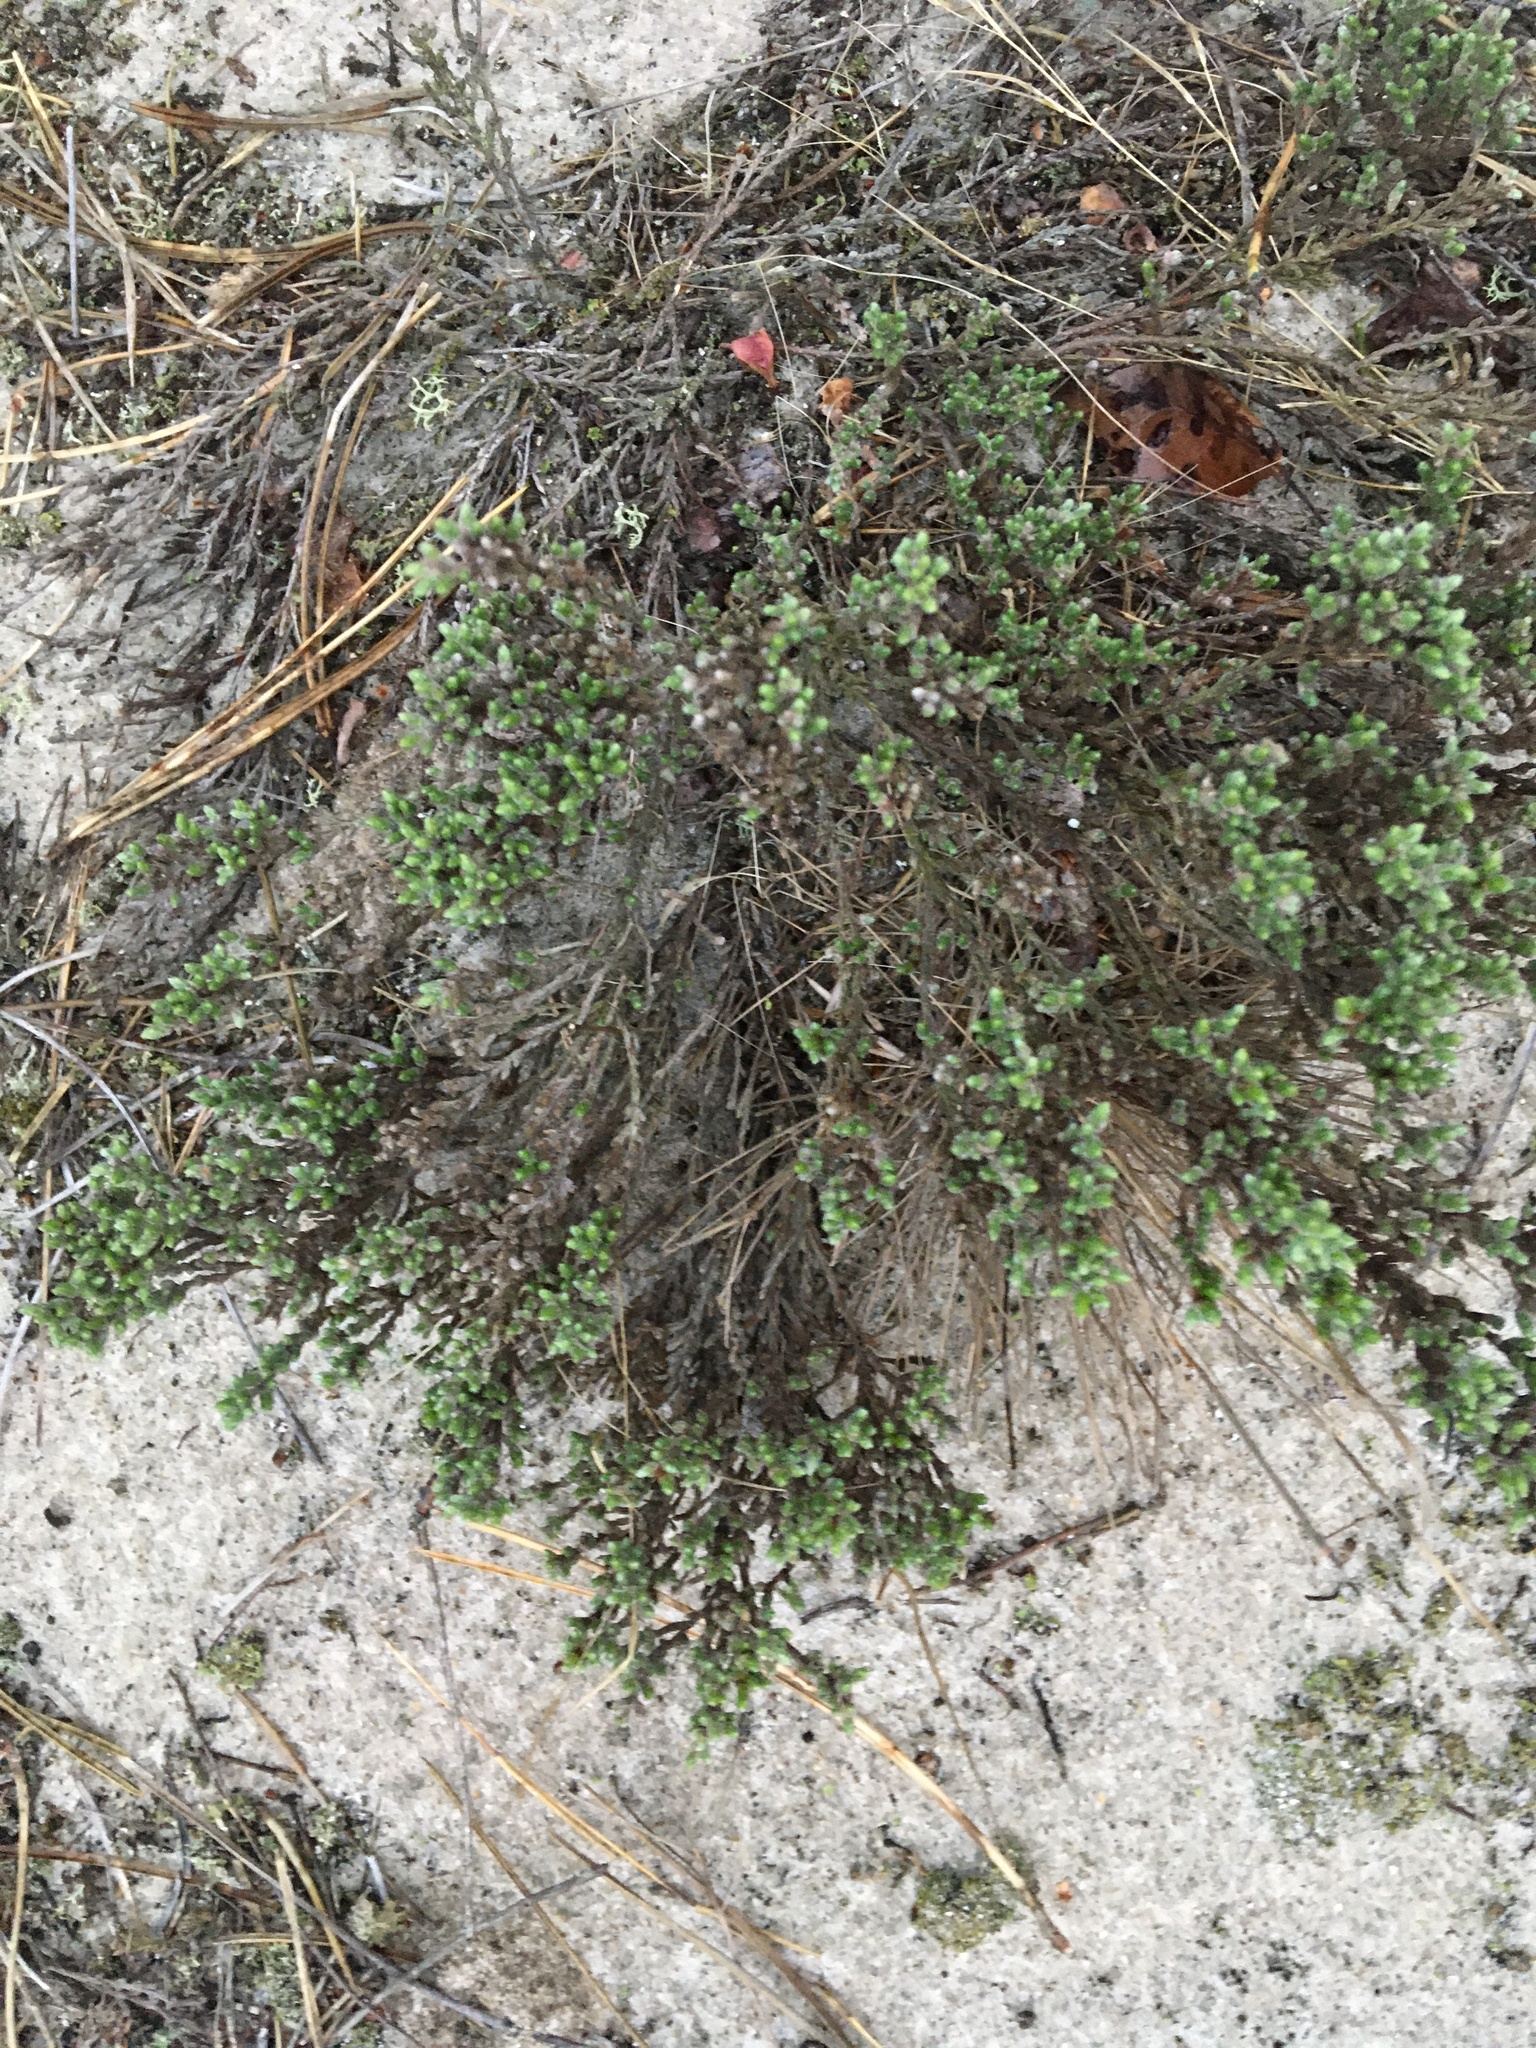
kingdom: Plantae
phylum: Tracheophyta
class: Magnoliopsida
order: Malvales
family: Cistaceae
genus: Hudsonia
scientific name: Hudsonia tomentosa
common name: Beach-heath
